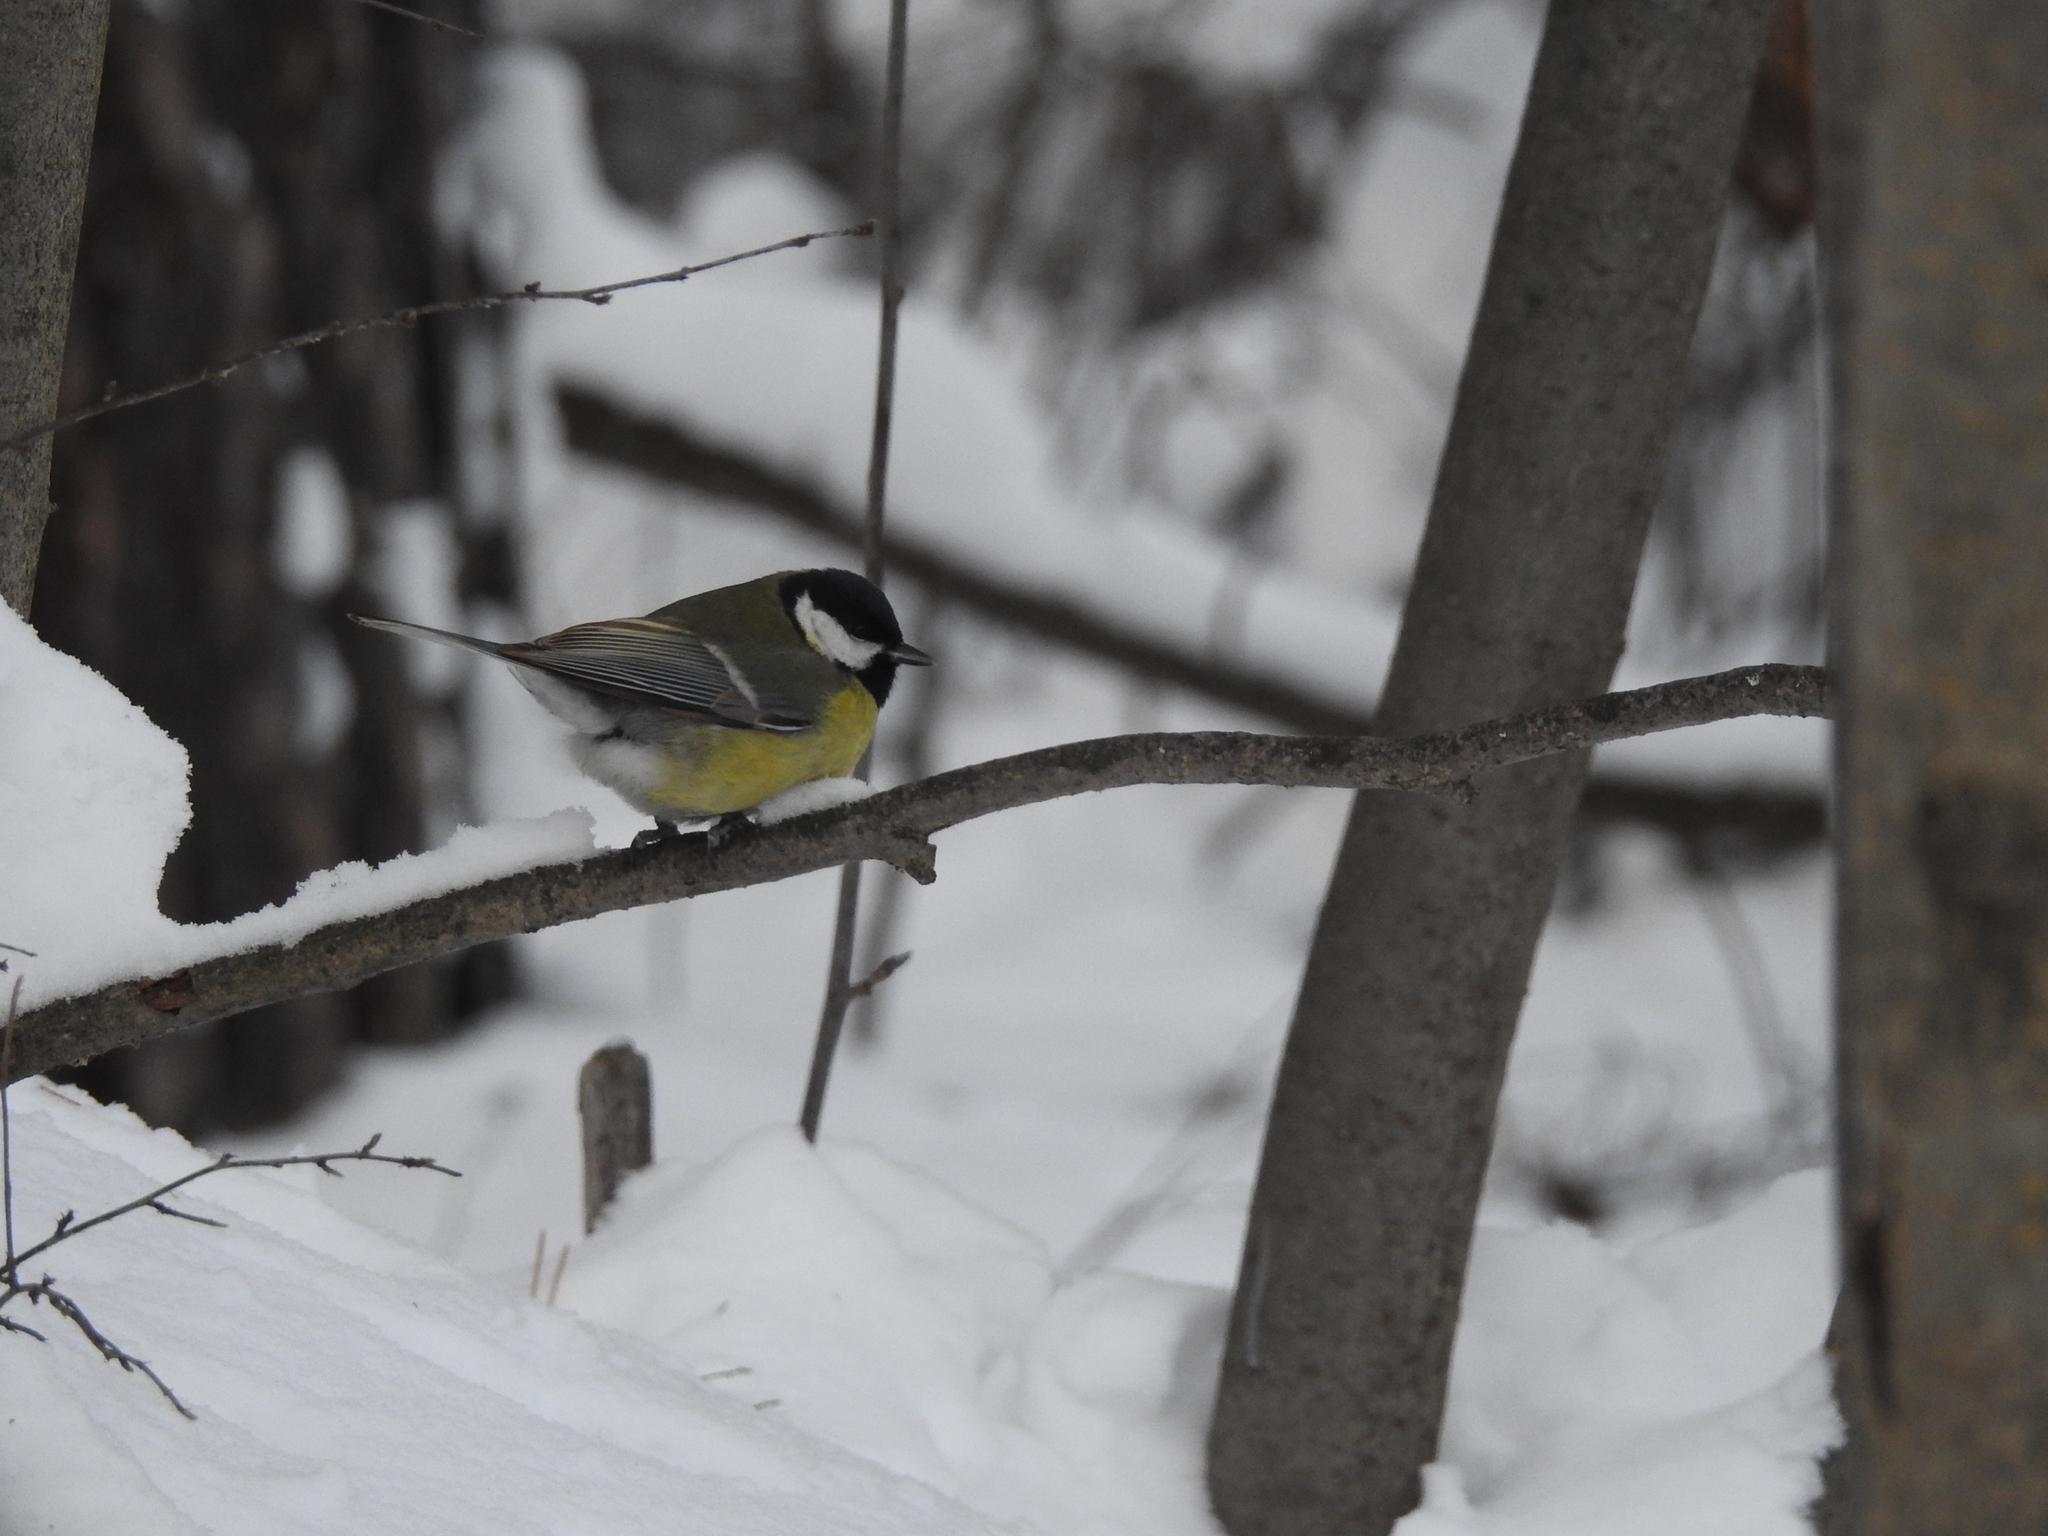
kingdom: Animalia
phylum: Chordata
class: Aves
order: Passeriformes
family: Paridae
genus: Parus
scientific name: Parus major
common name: Great tit
